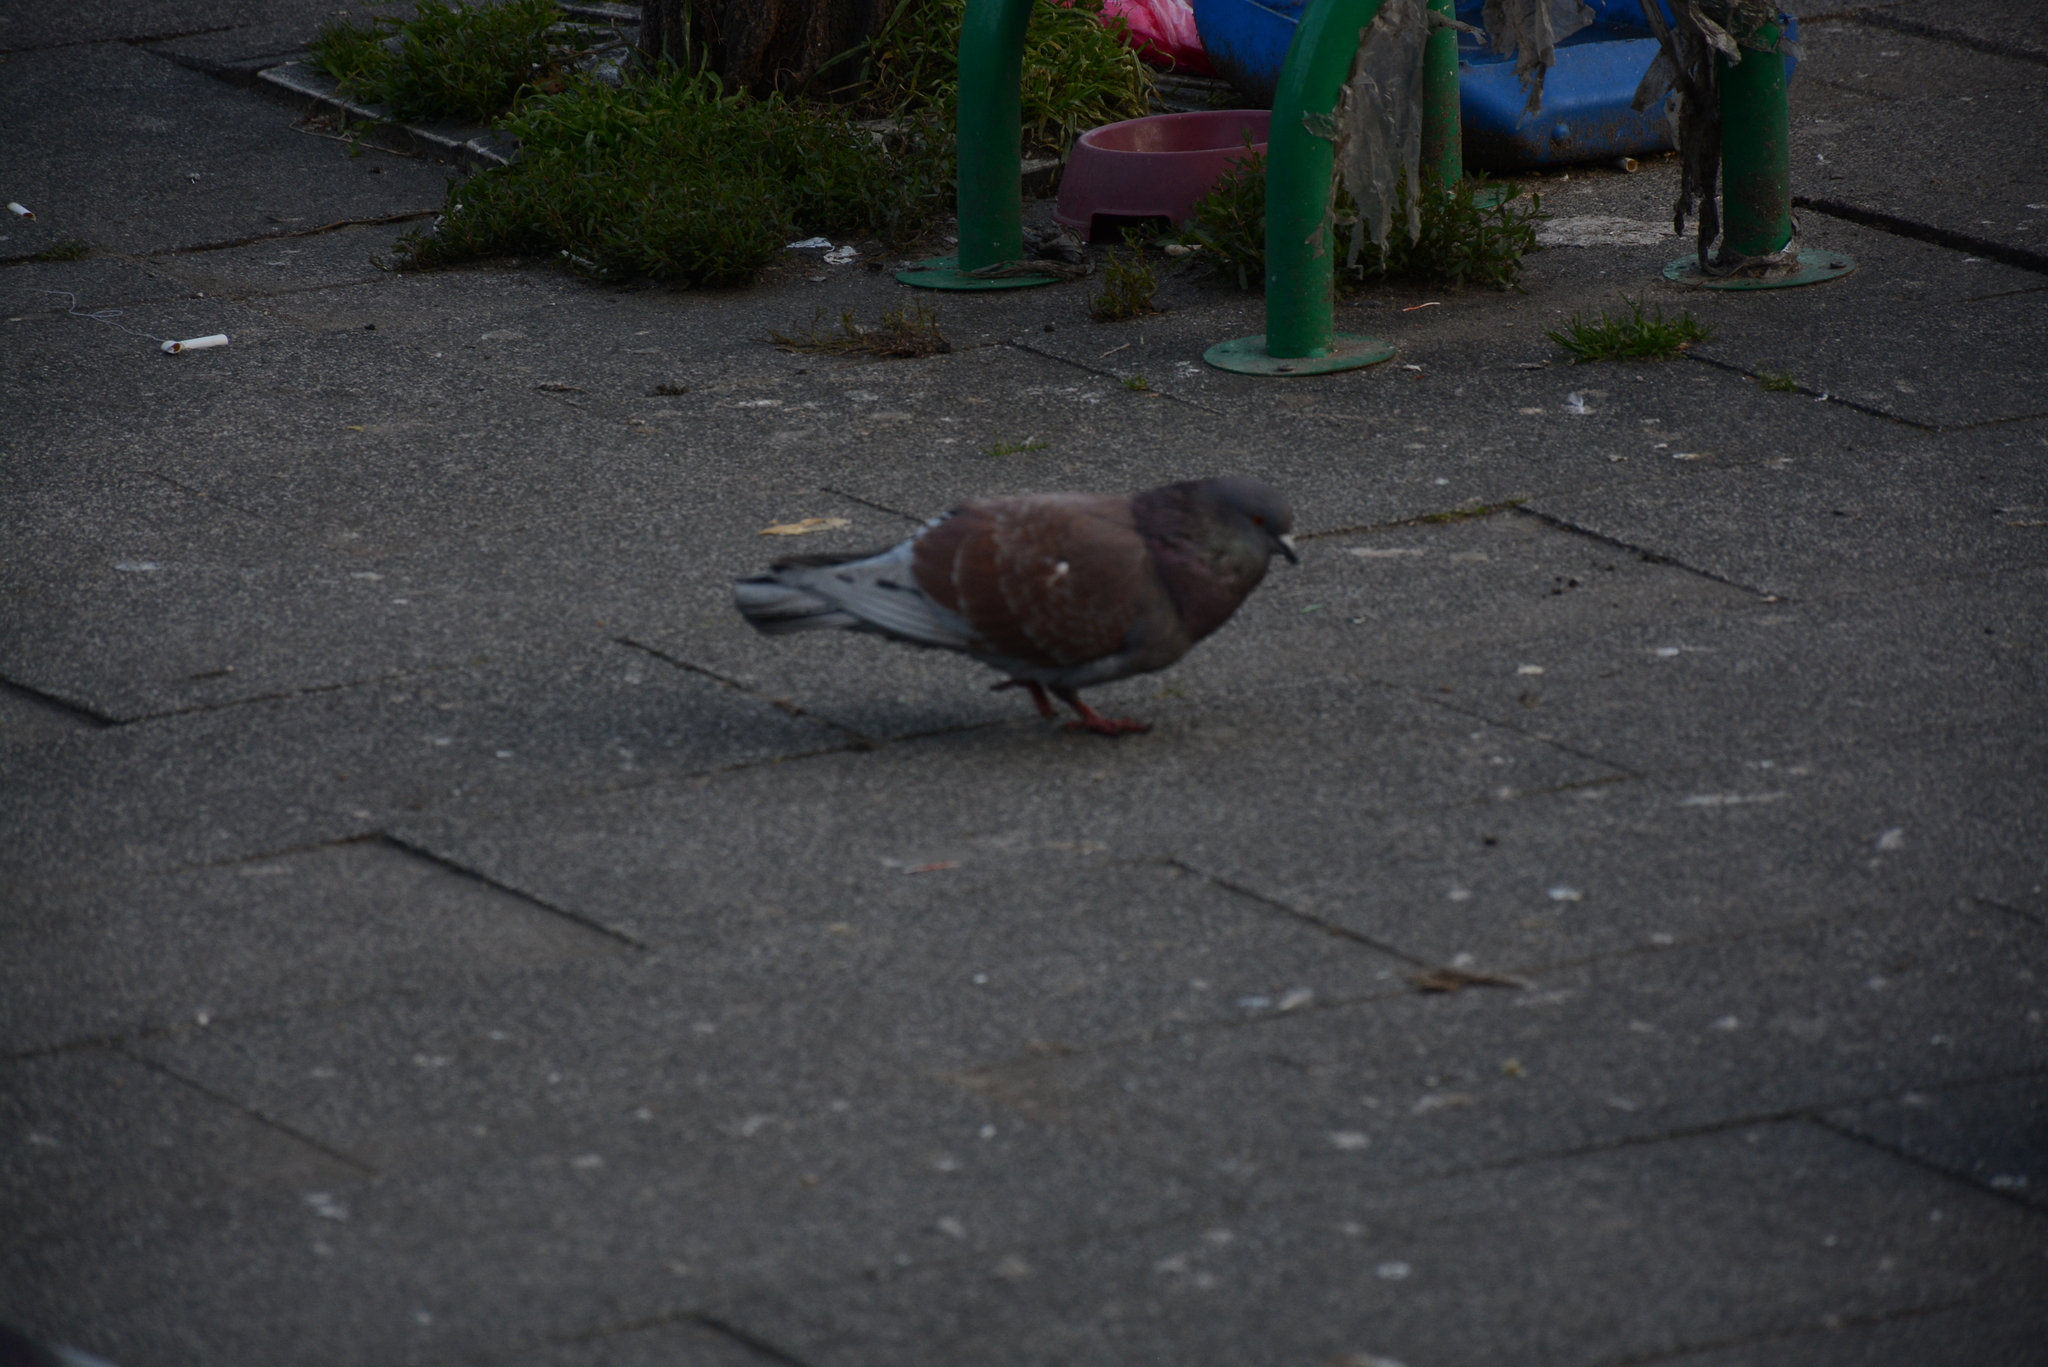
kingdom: Animalia
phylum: Chordata
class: Aves
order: Columbiformes
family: Columbidae
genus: Columba
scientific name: Columba livia
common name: Rock pigeon
